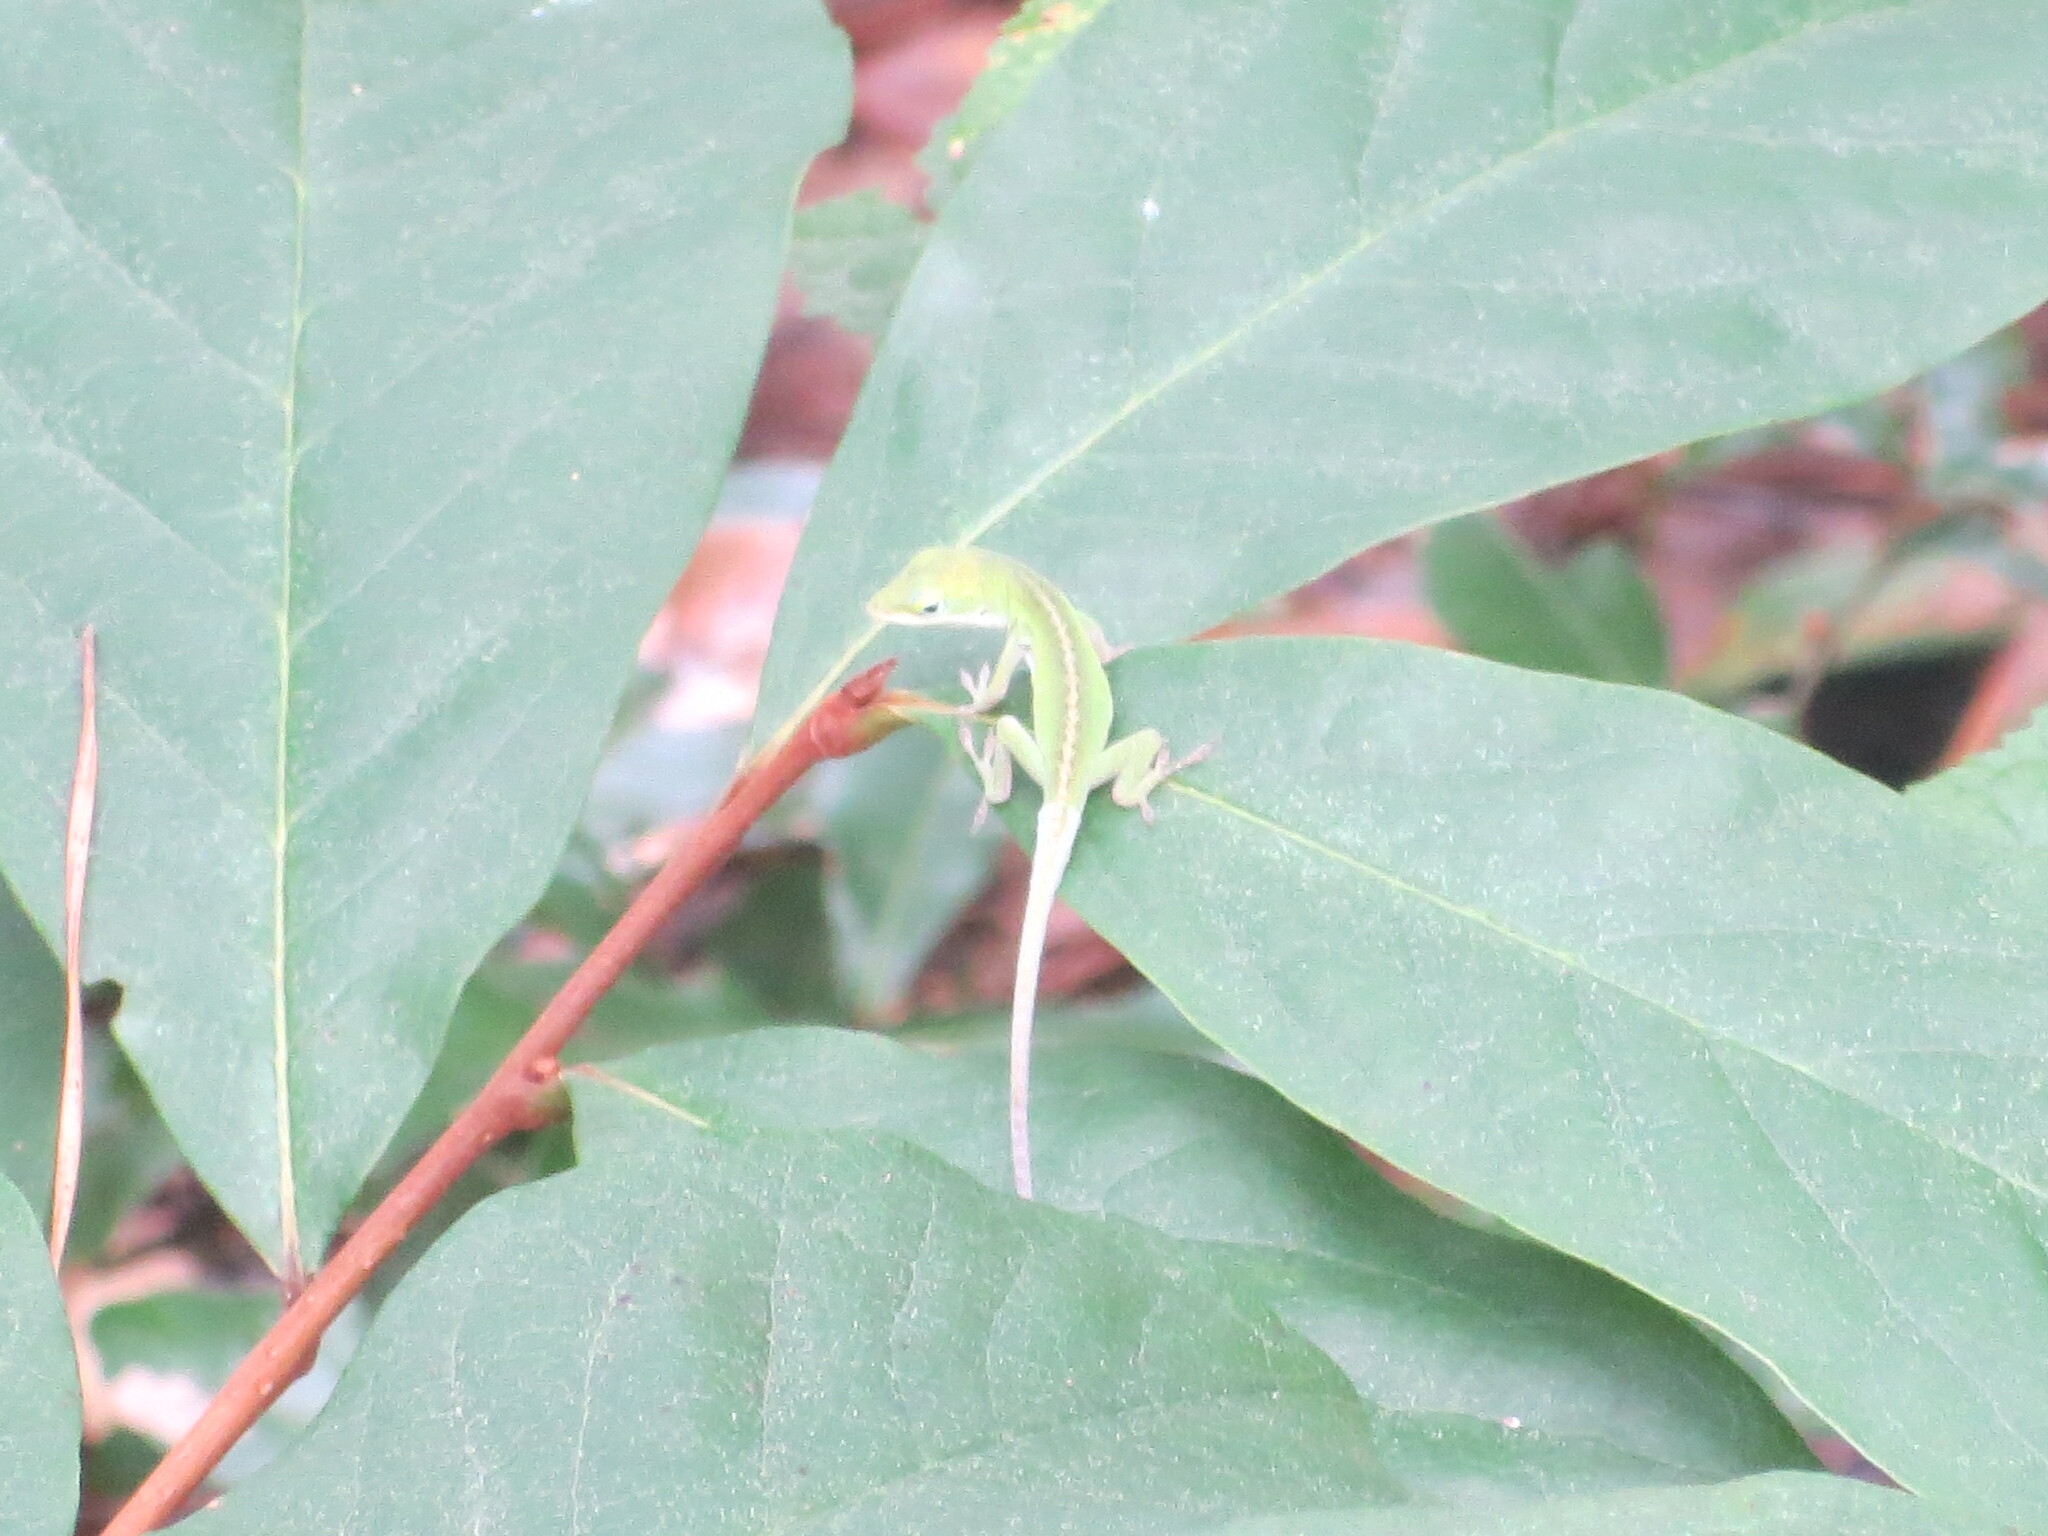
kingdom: Animalia
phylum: Chordata
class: Squamata
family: Dactyloidae
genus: Anolis
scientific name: Anolis carolinensis
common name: Green anole
